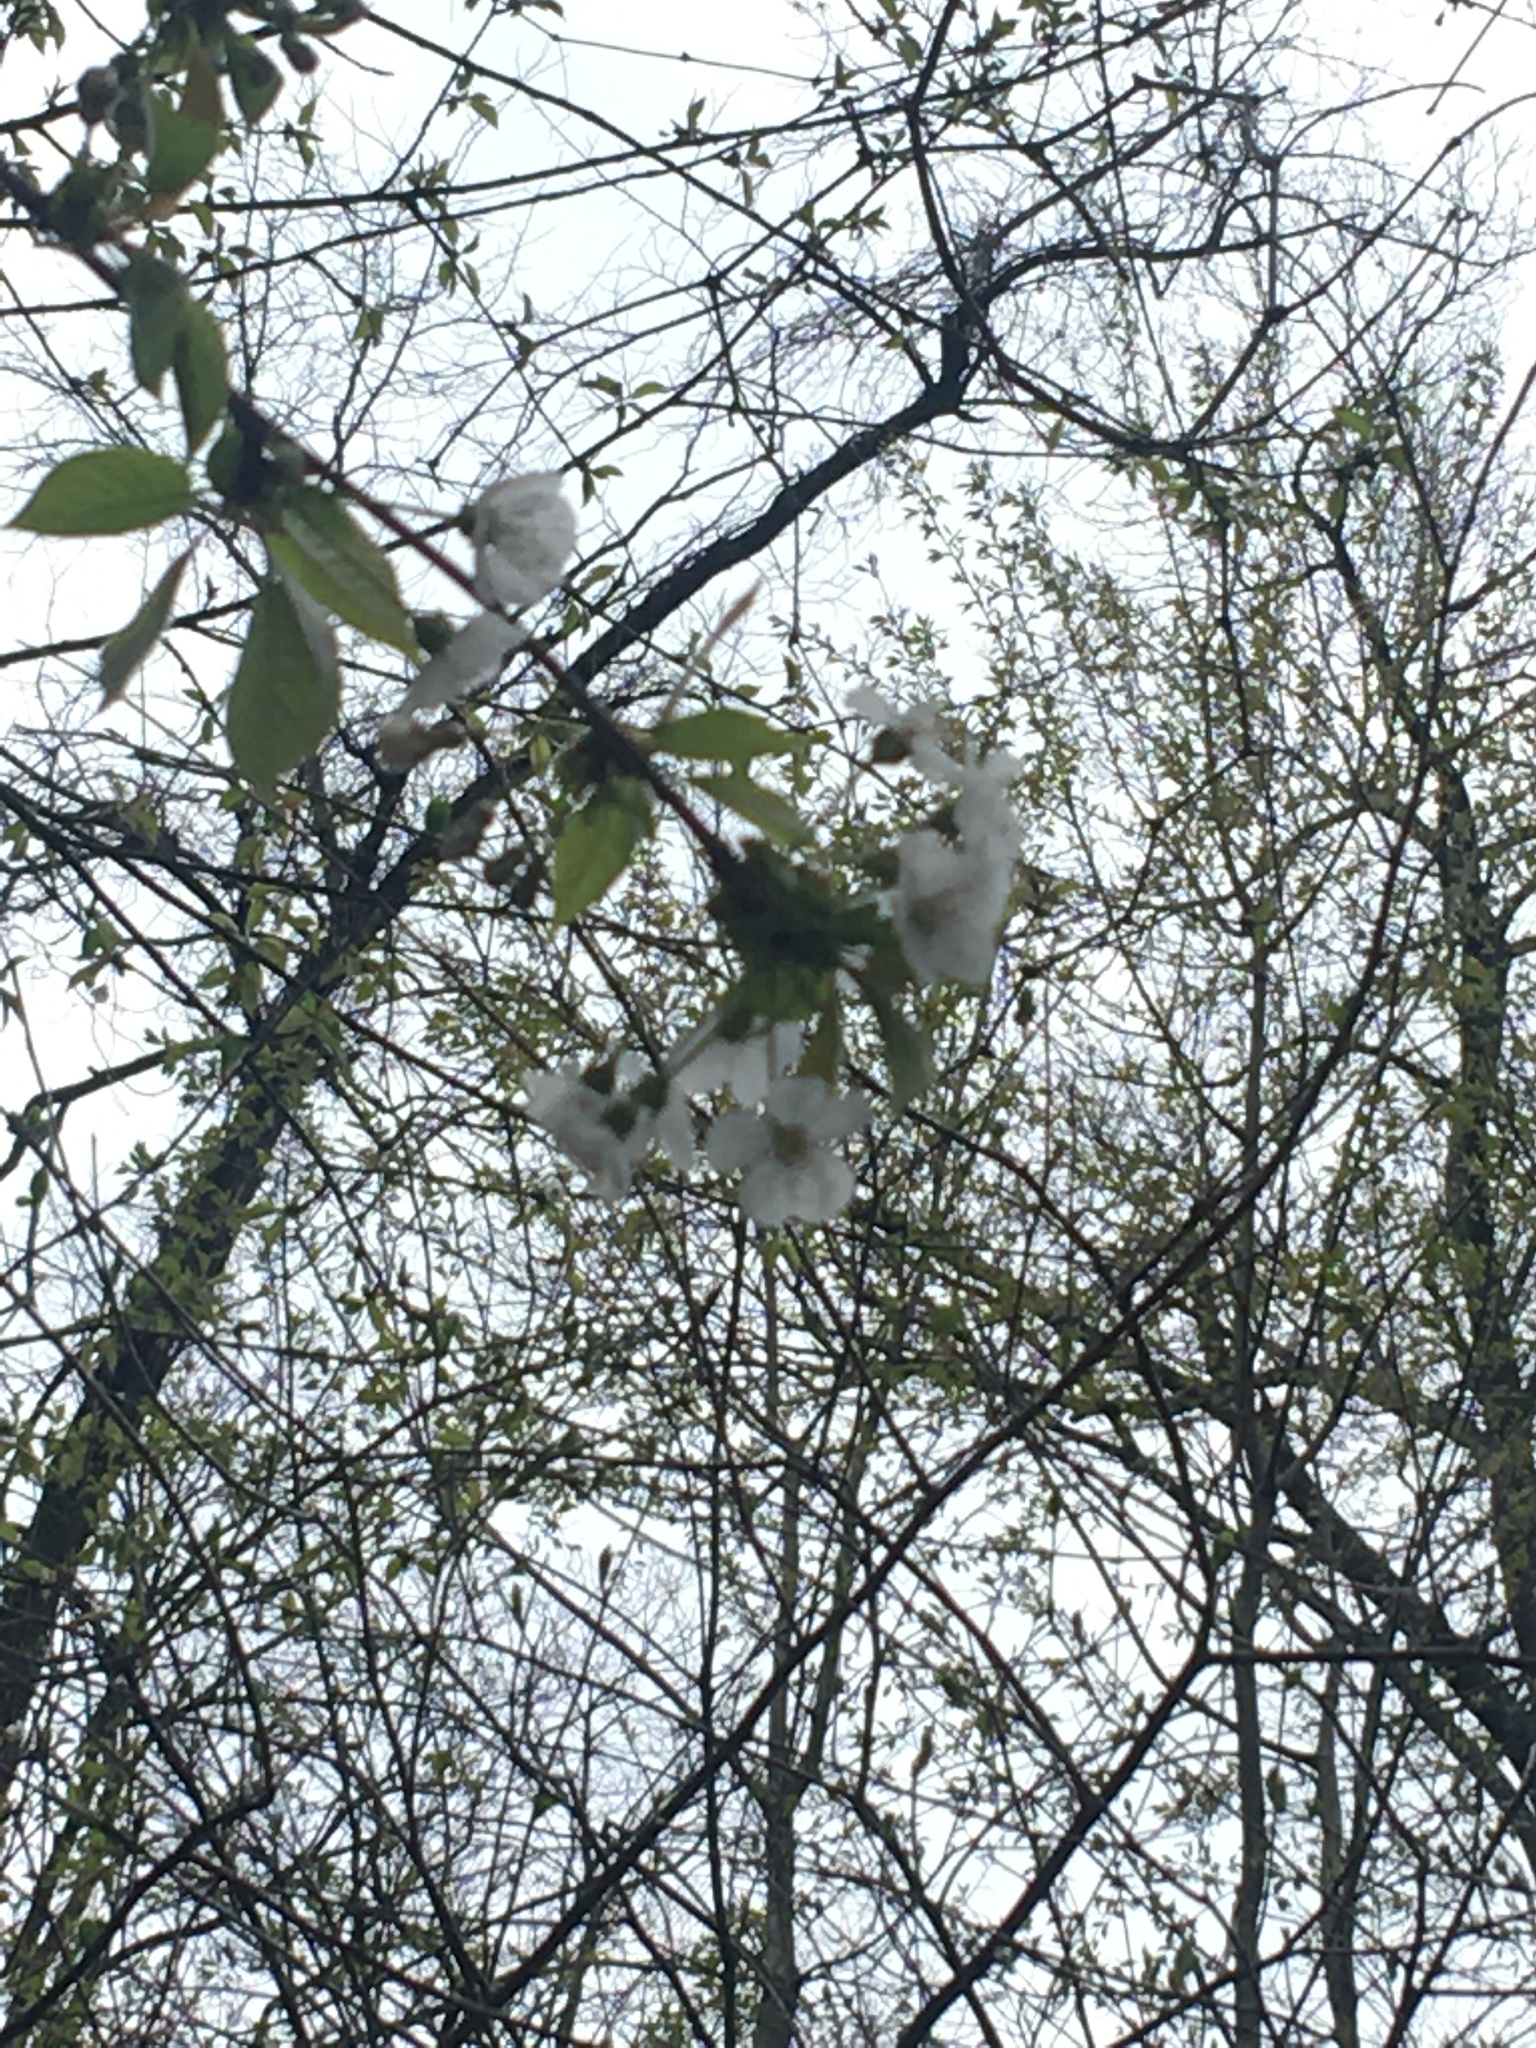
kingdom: Plantae
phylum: Tracheophyta
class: Magnoliopsida
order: Rosales
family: Rosaceae
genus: Prunus
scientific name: Prunus avium
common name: Sweet cherry
